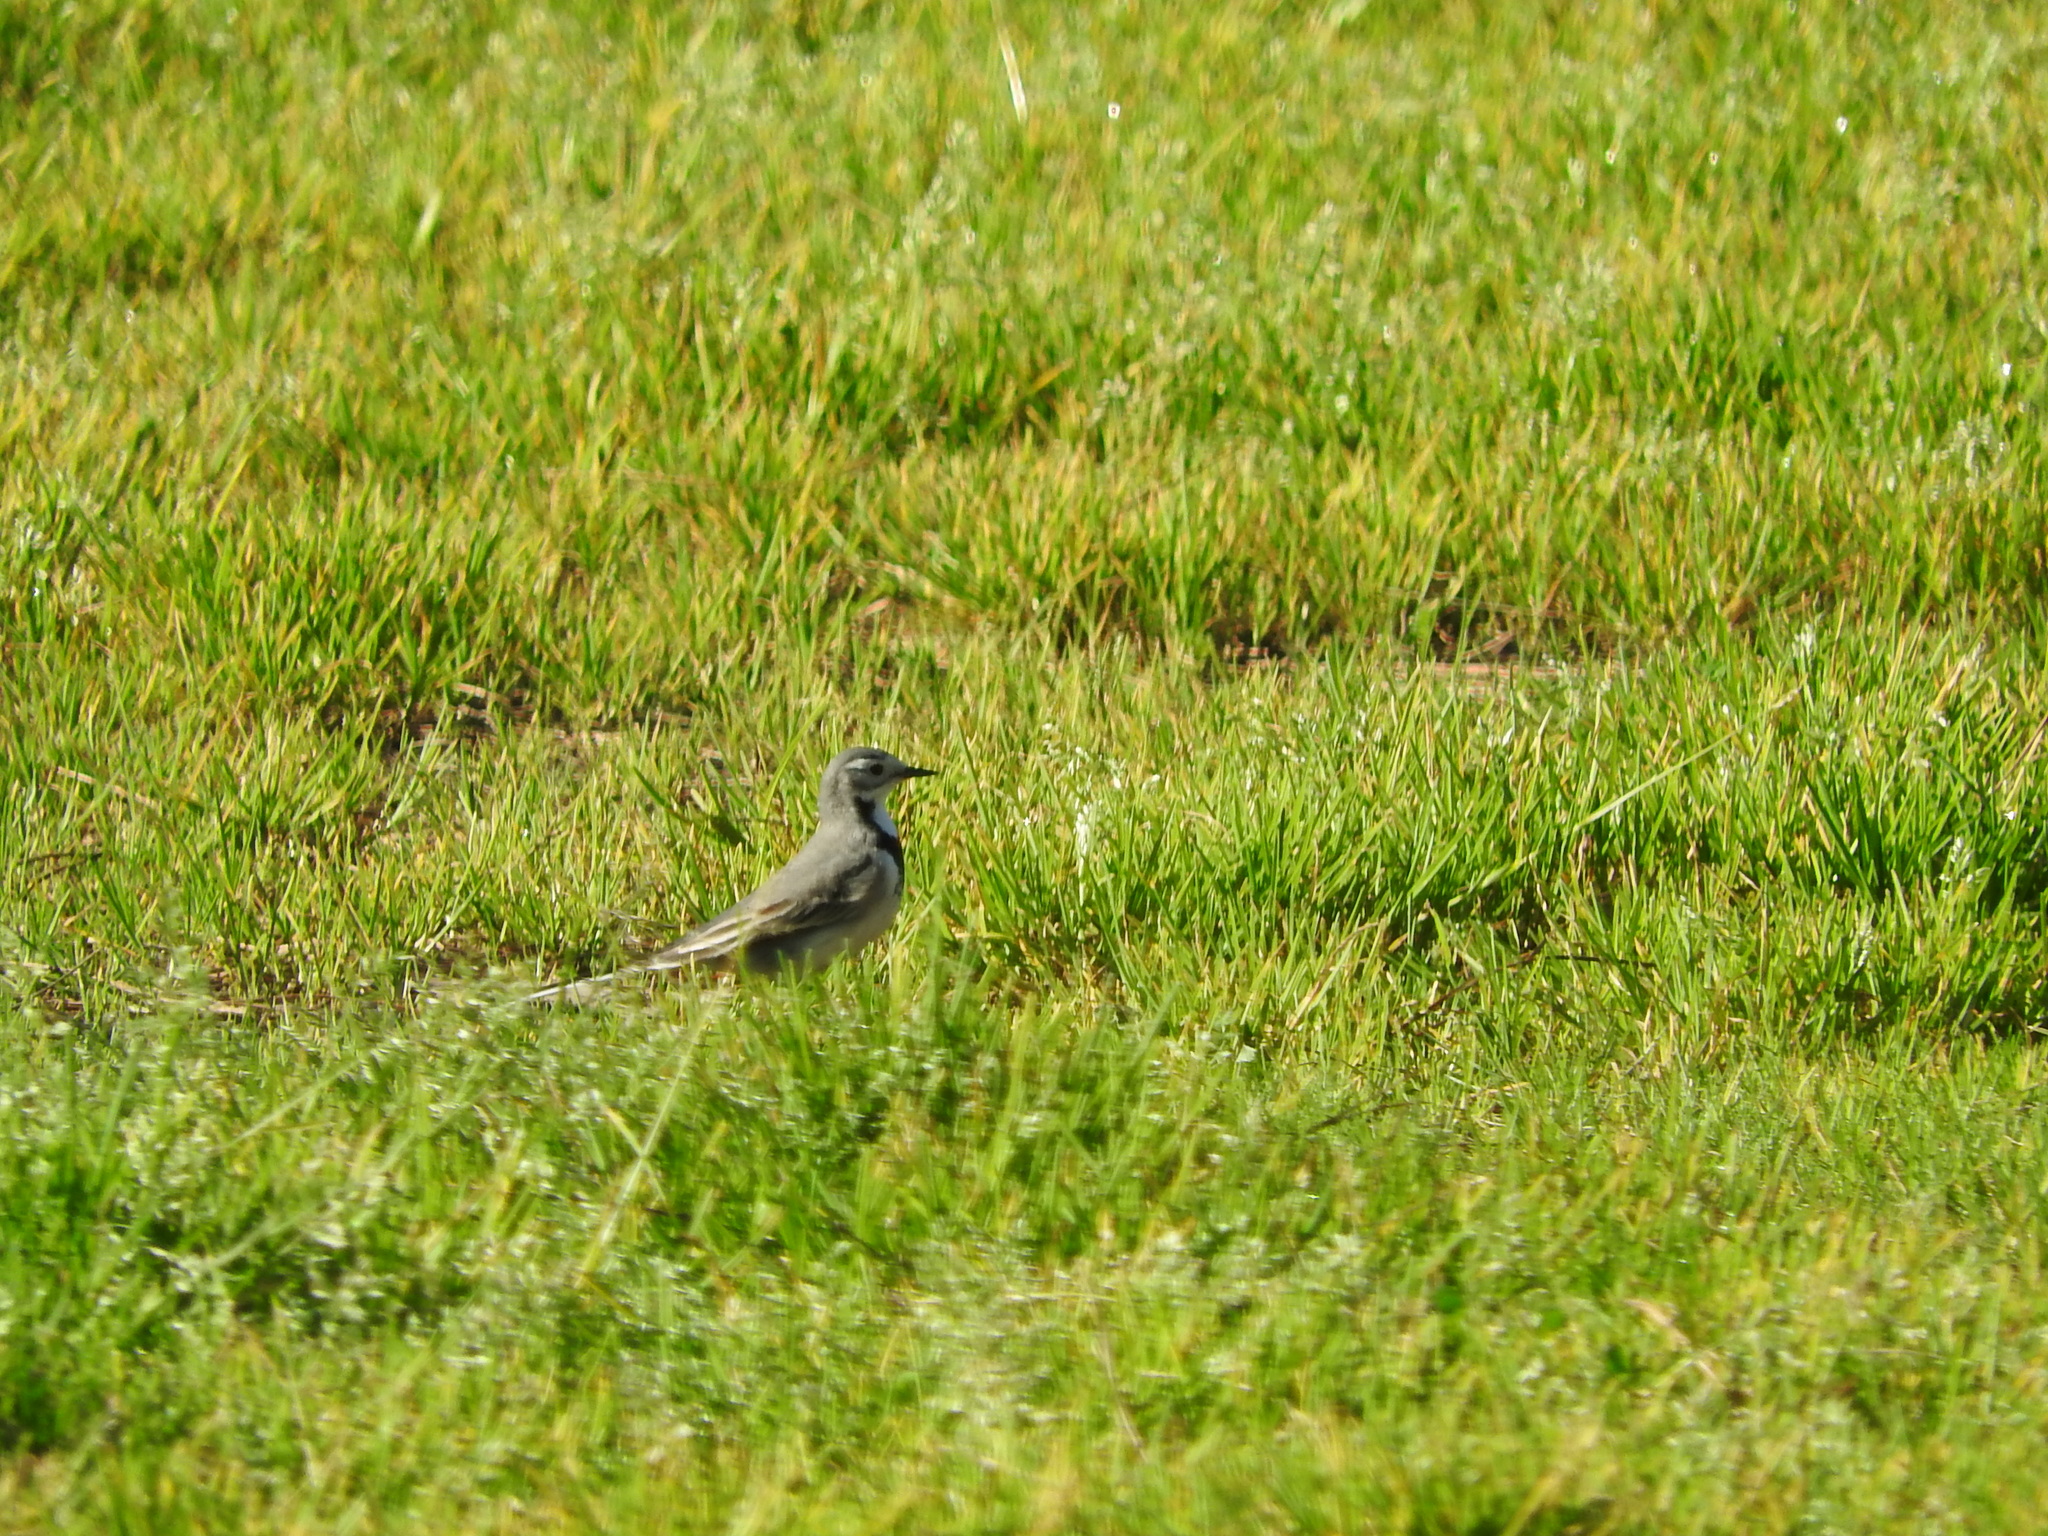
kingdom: Animalia
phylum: Chordata
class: Aves
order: Passeriformes
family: Motacillidae
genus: Motacilla
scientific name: Motacilla alba
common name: White wagtail
